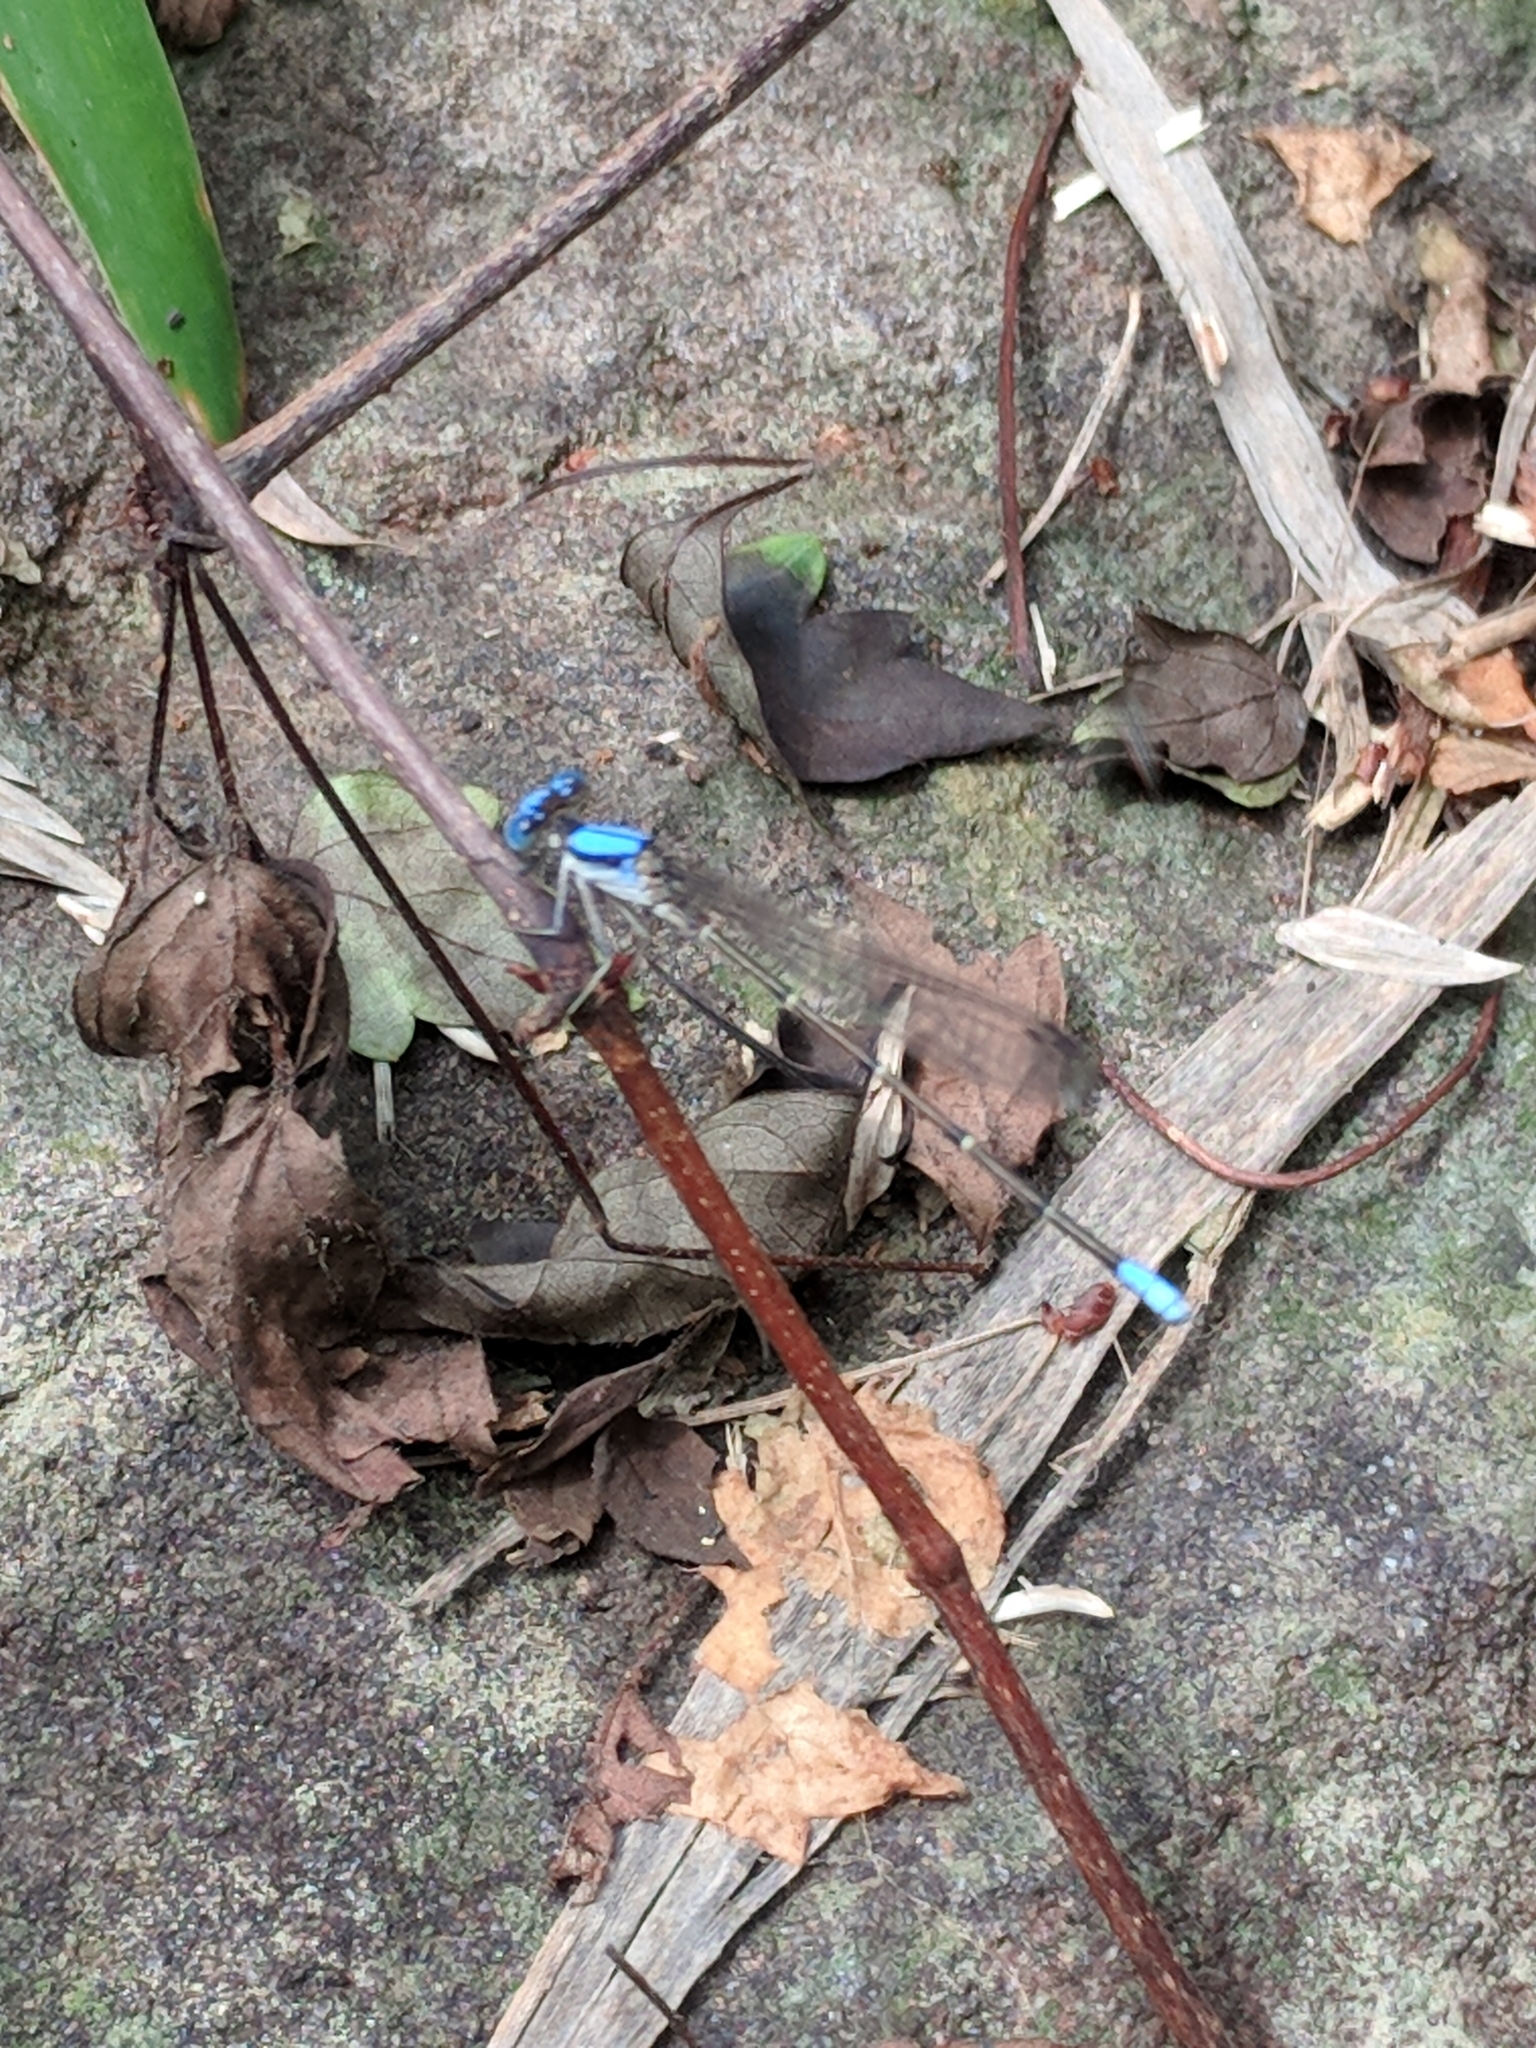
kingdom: Animalia
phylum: Arthropoda
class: Insecta
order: Odonata
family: Coenagrionidae
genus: Argia
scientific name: Argia apicalis
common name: Blue-fronted dancer
